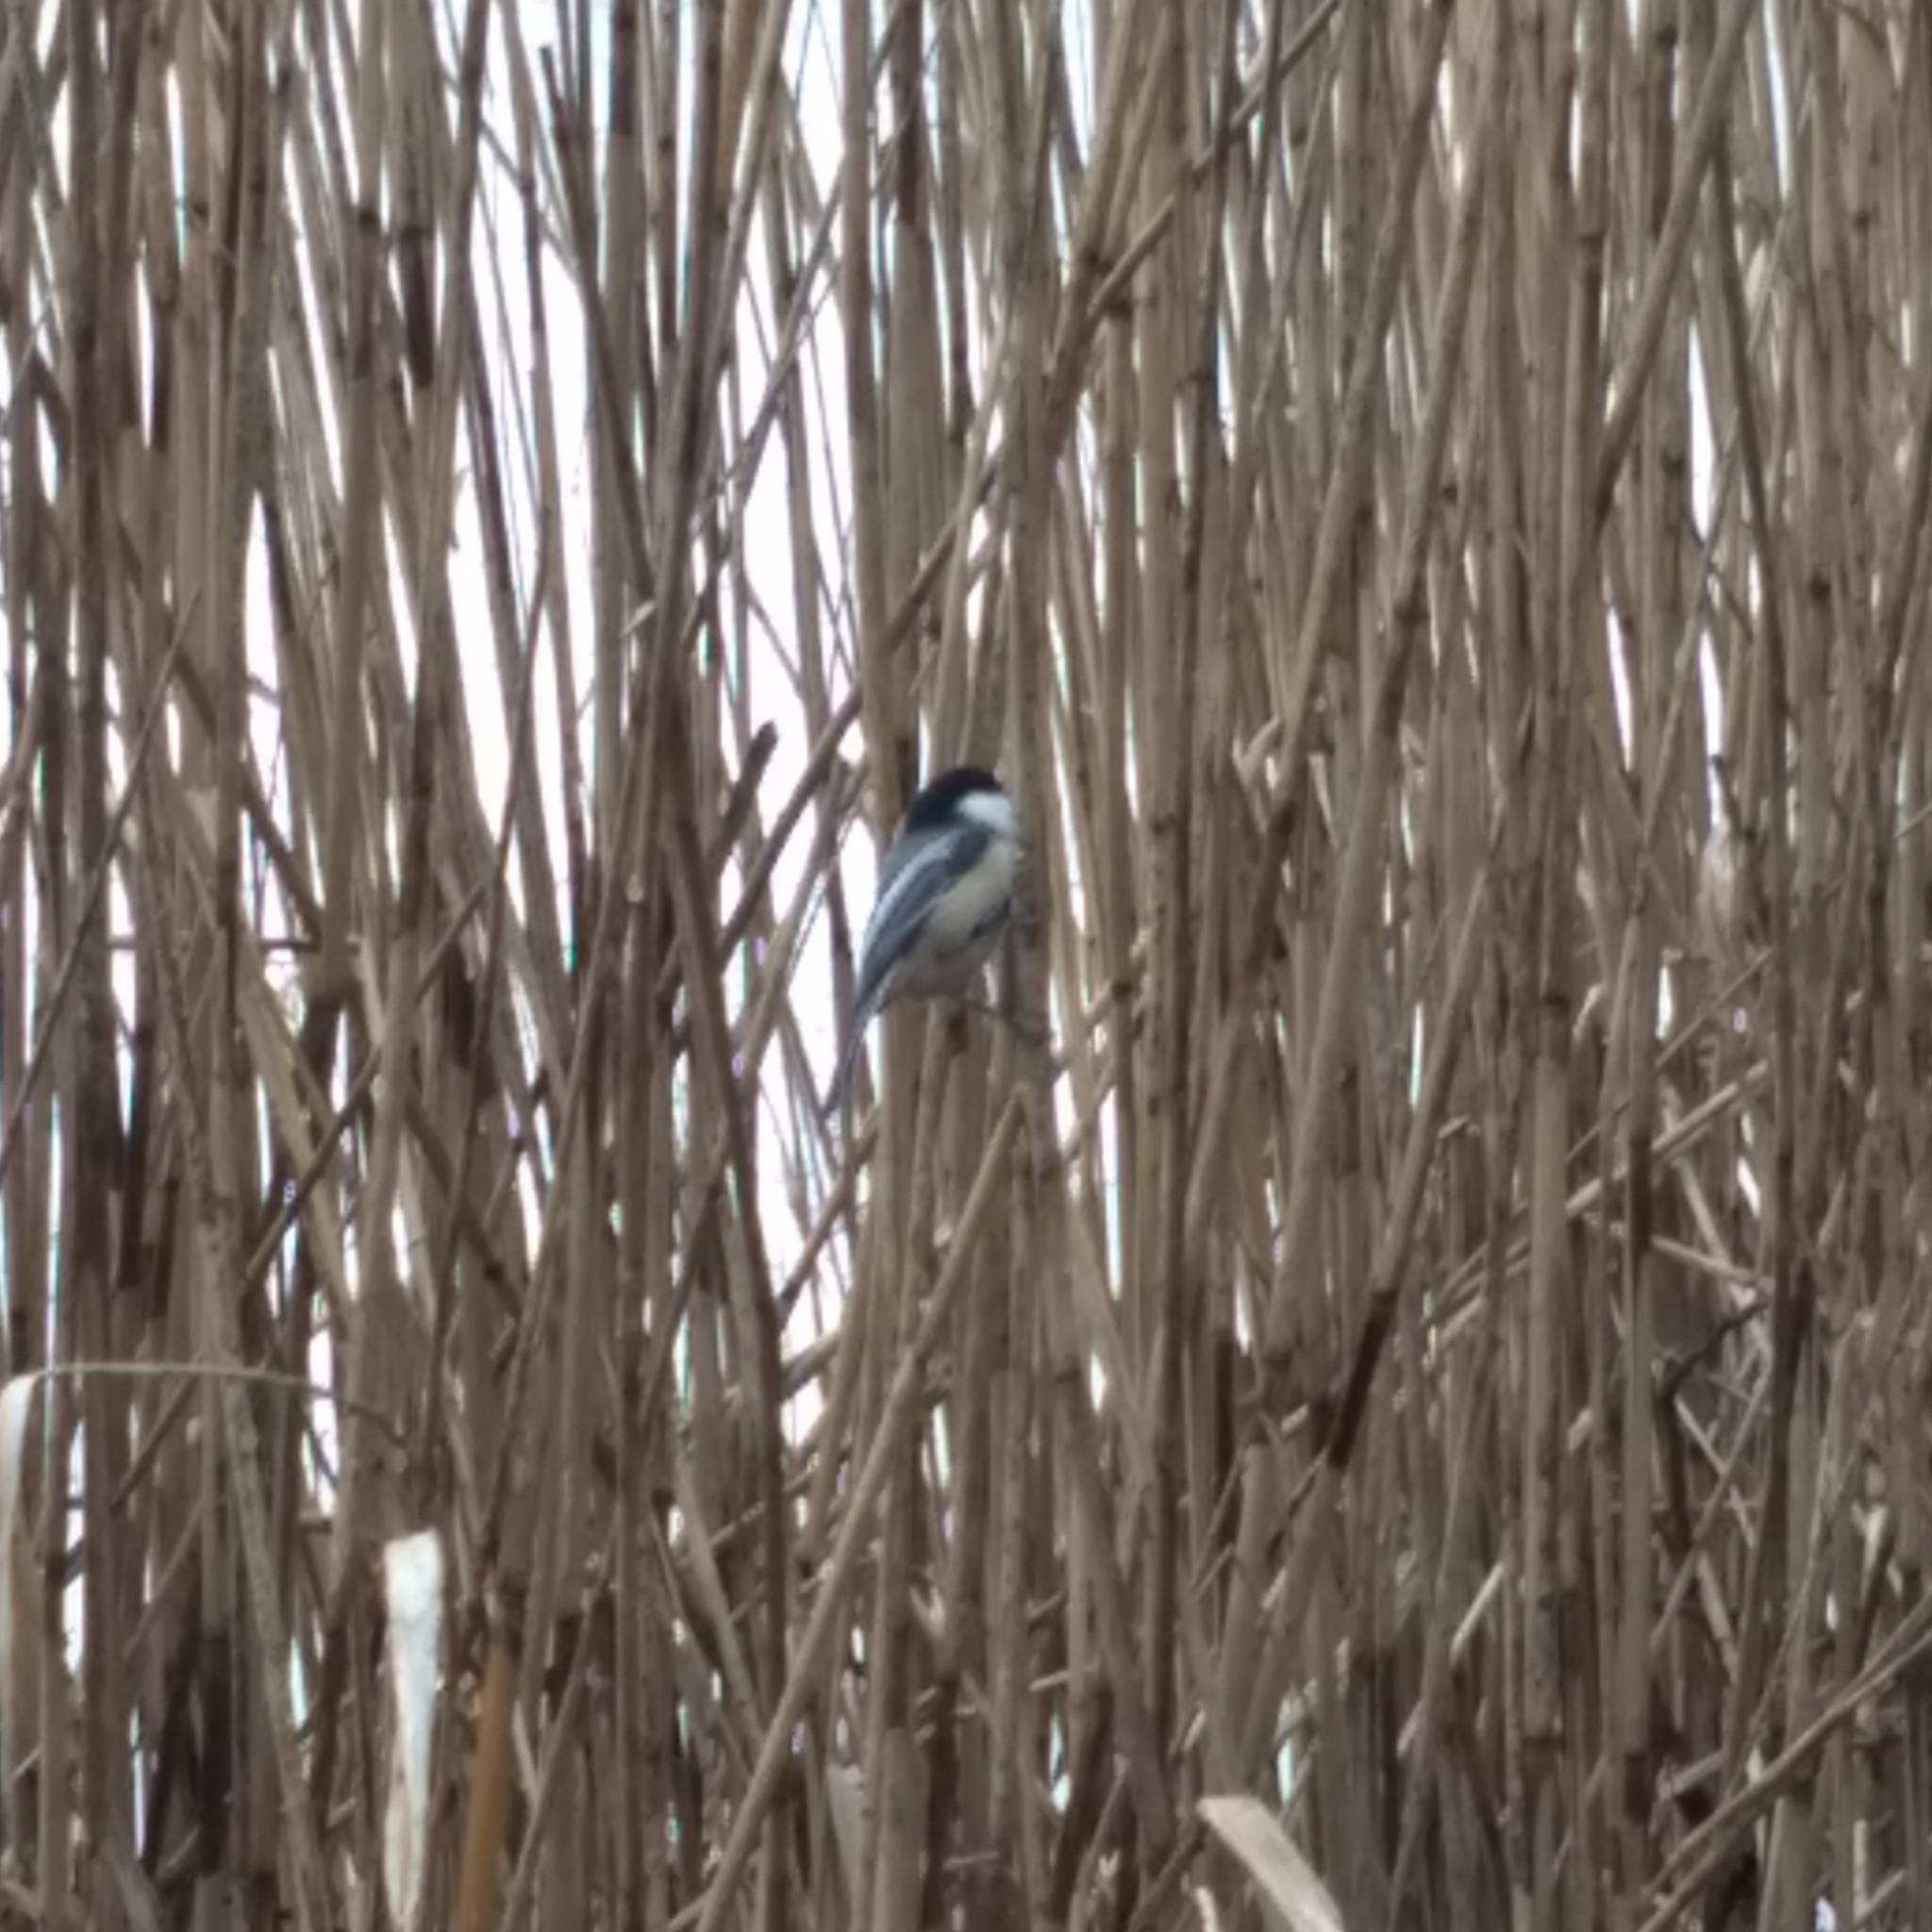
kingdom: Animalia
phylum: Chordata
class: Aves
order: Passeriformes
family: Paridae
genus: Poecile
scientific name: Poecile atricapillus
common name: Black-capped chickadee
